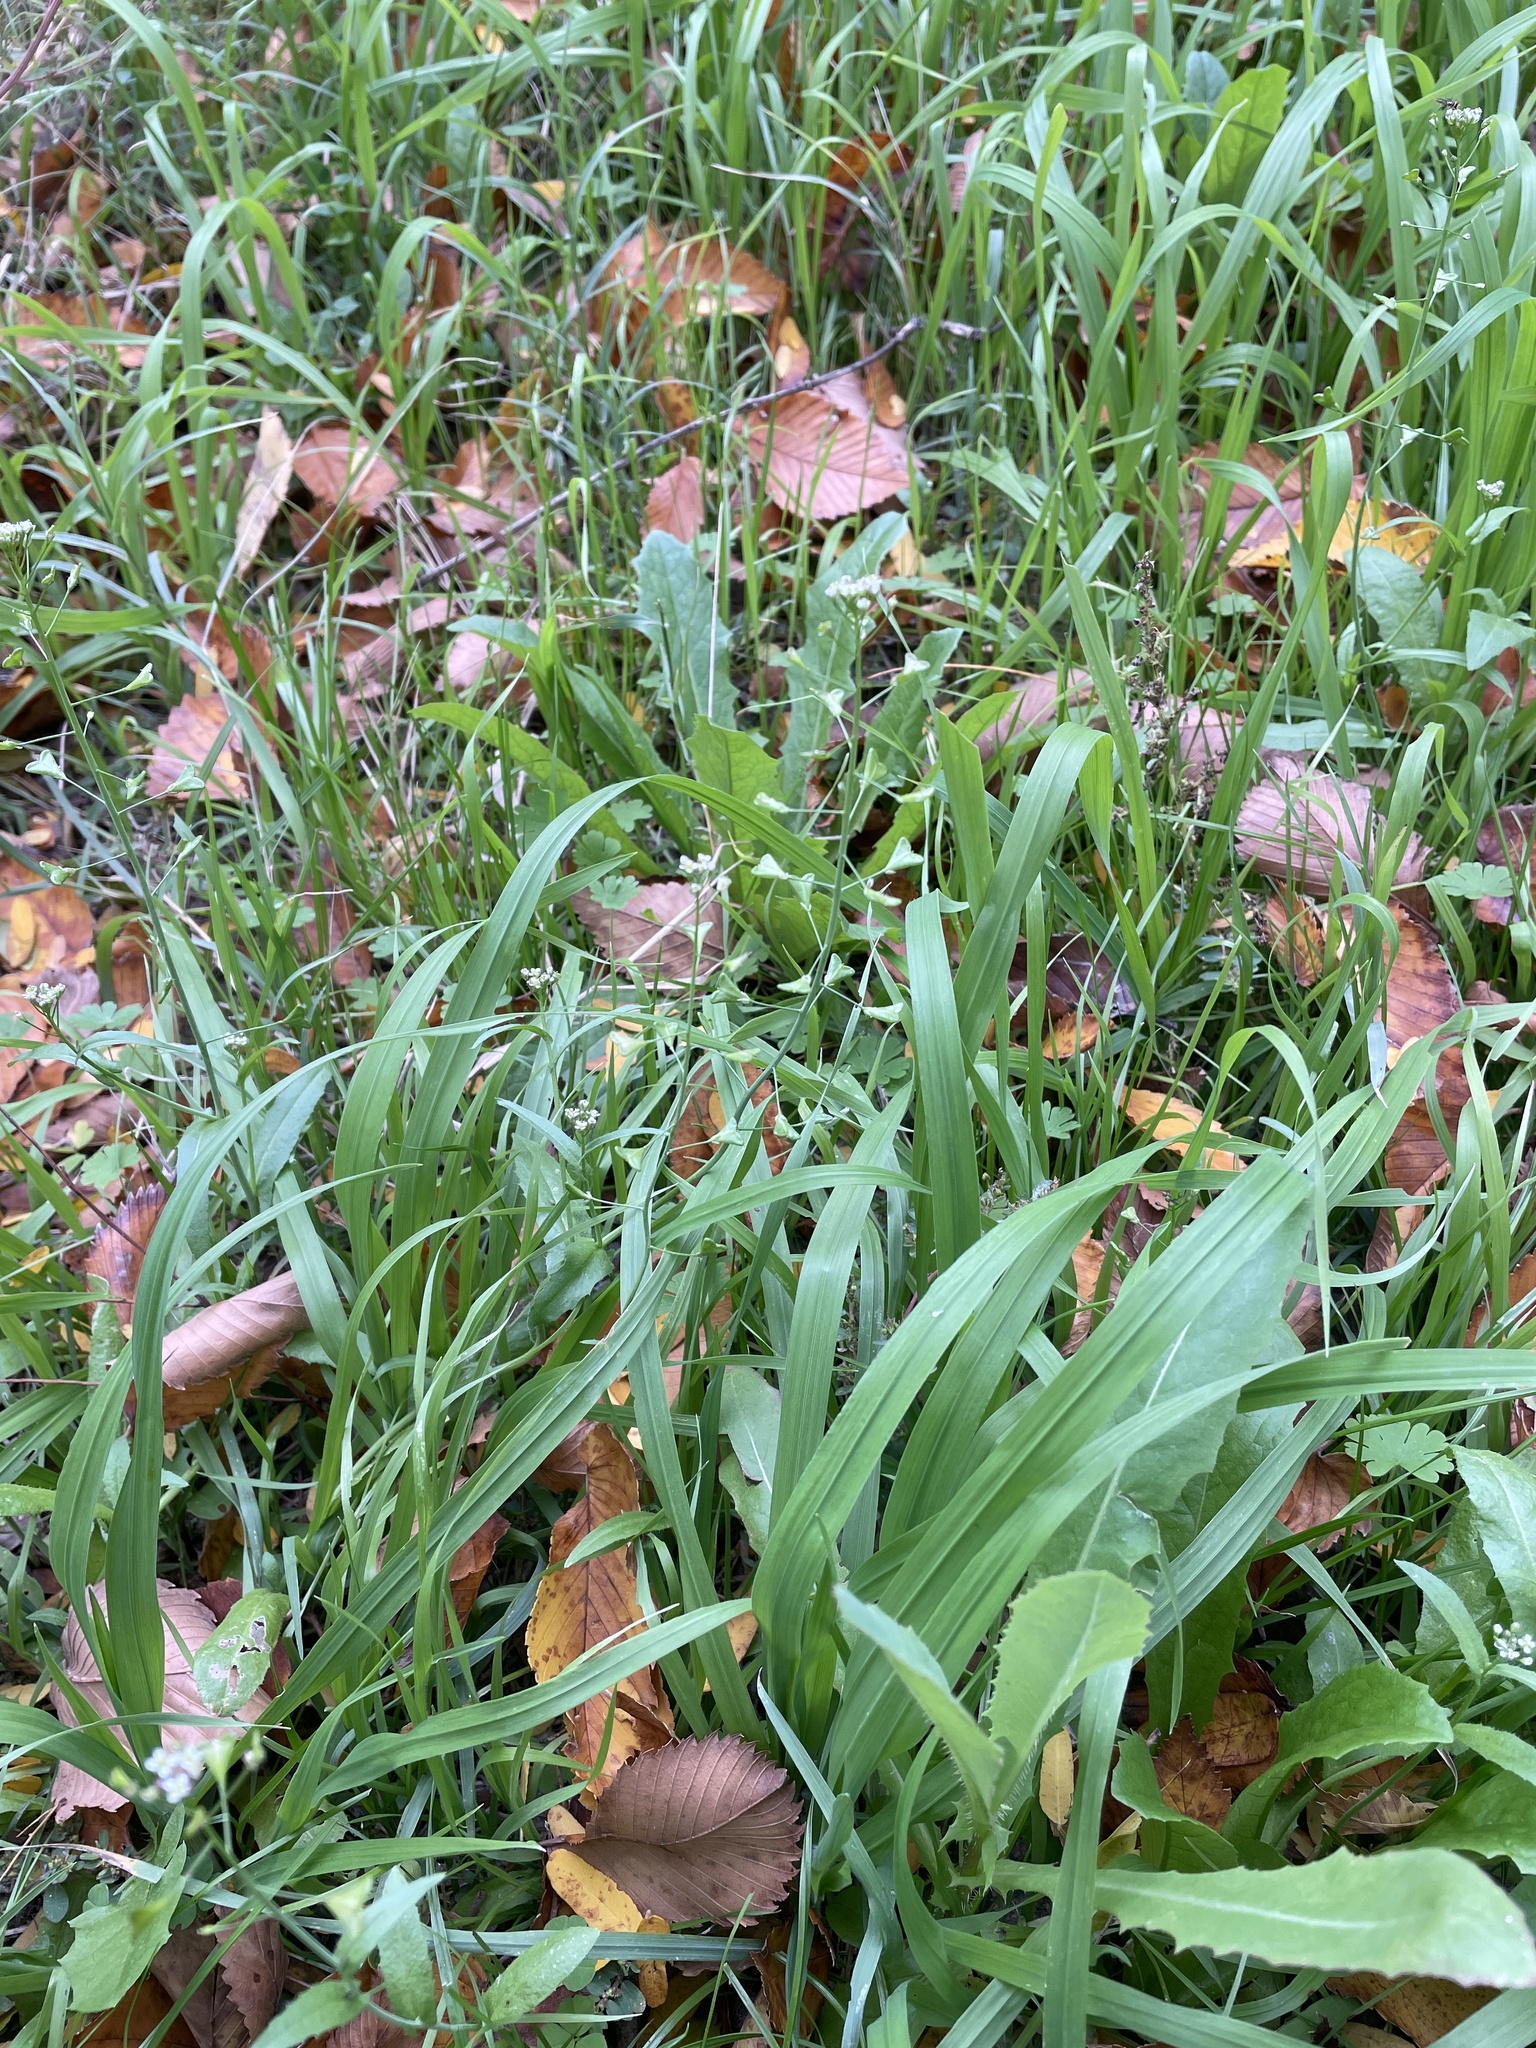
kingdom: Plantae
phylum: Tracheophyta
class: Magnoliopsida
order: Brassicales
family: Brassicaceae
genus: Capsella
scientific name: Capsella bursa-pastoris
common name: Shepherd's purse
